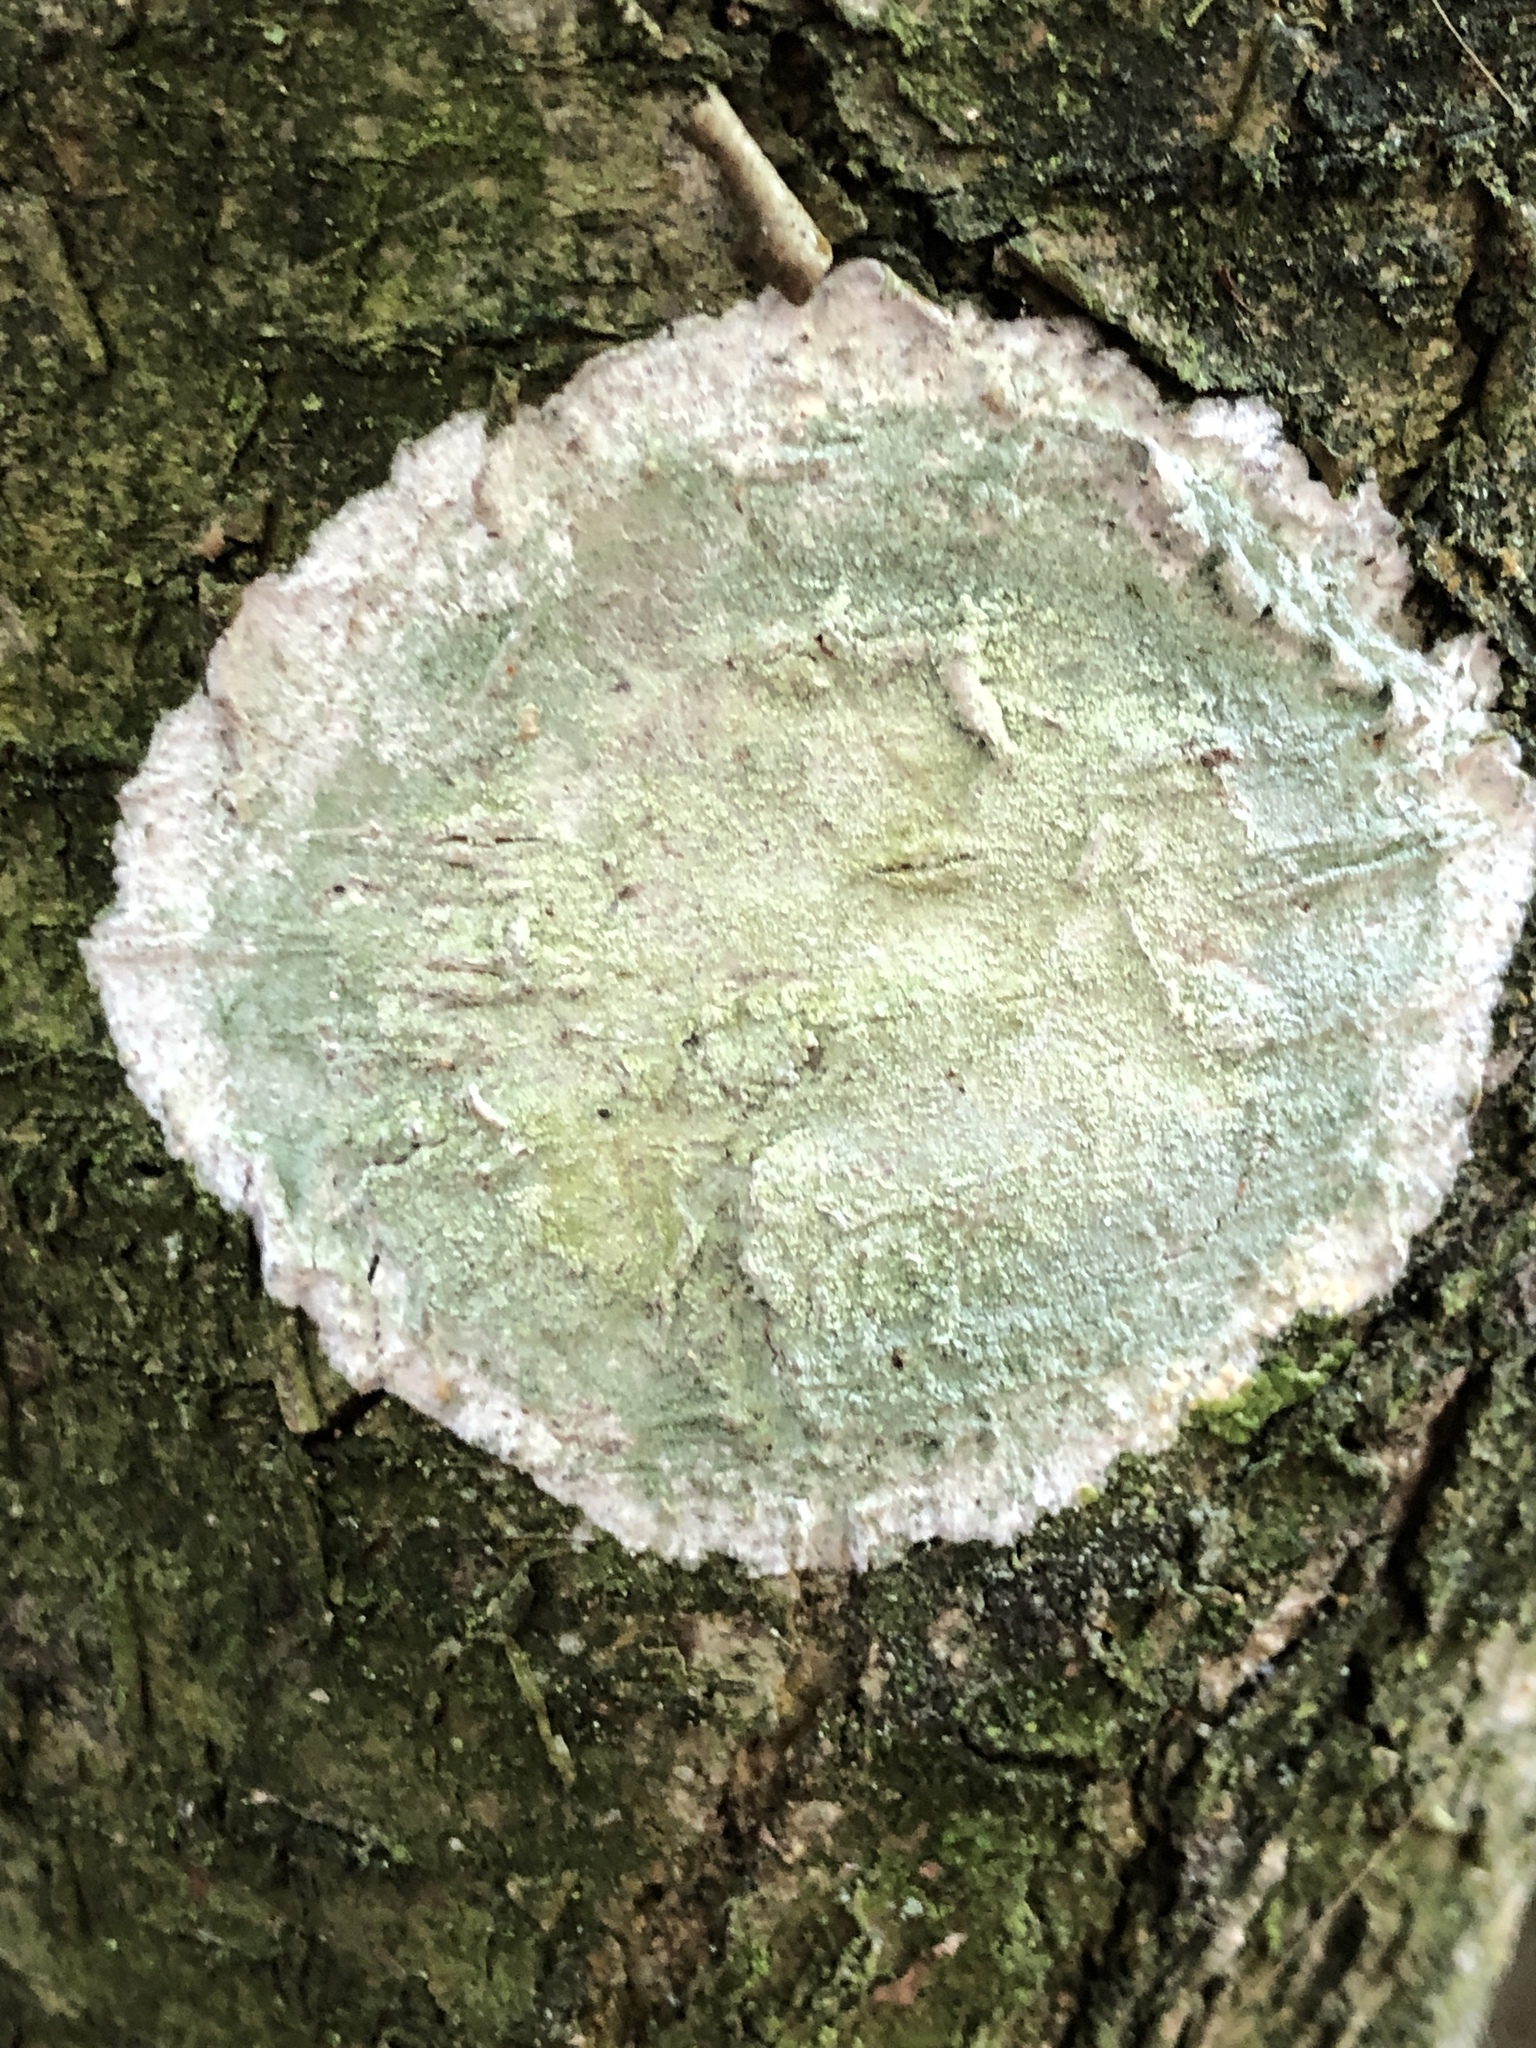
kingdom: Fungi
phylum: Ascomycota
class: Lecanoromycetes
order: Ostropales
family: Phlyctidaceae
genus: Phlyctis
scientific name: Phlyctis argena
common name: Whitewash lichen
